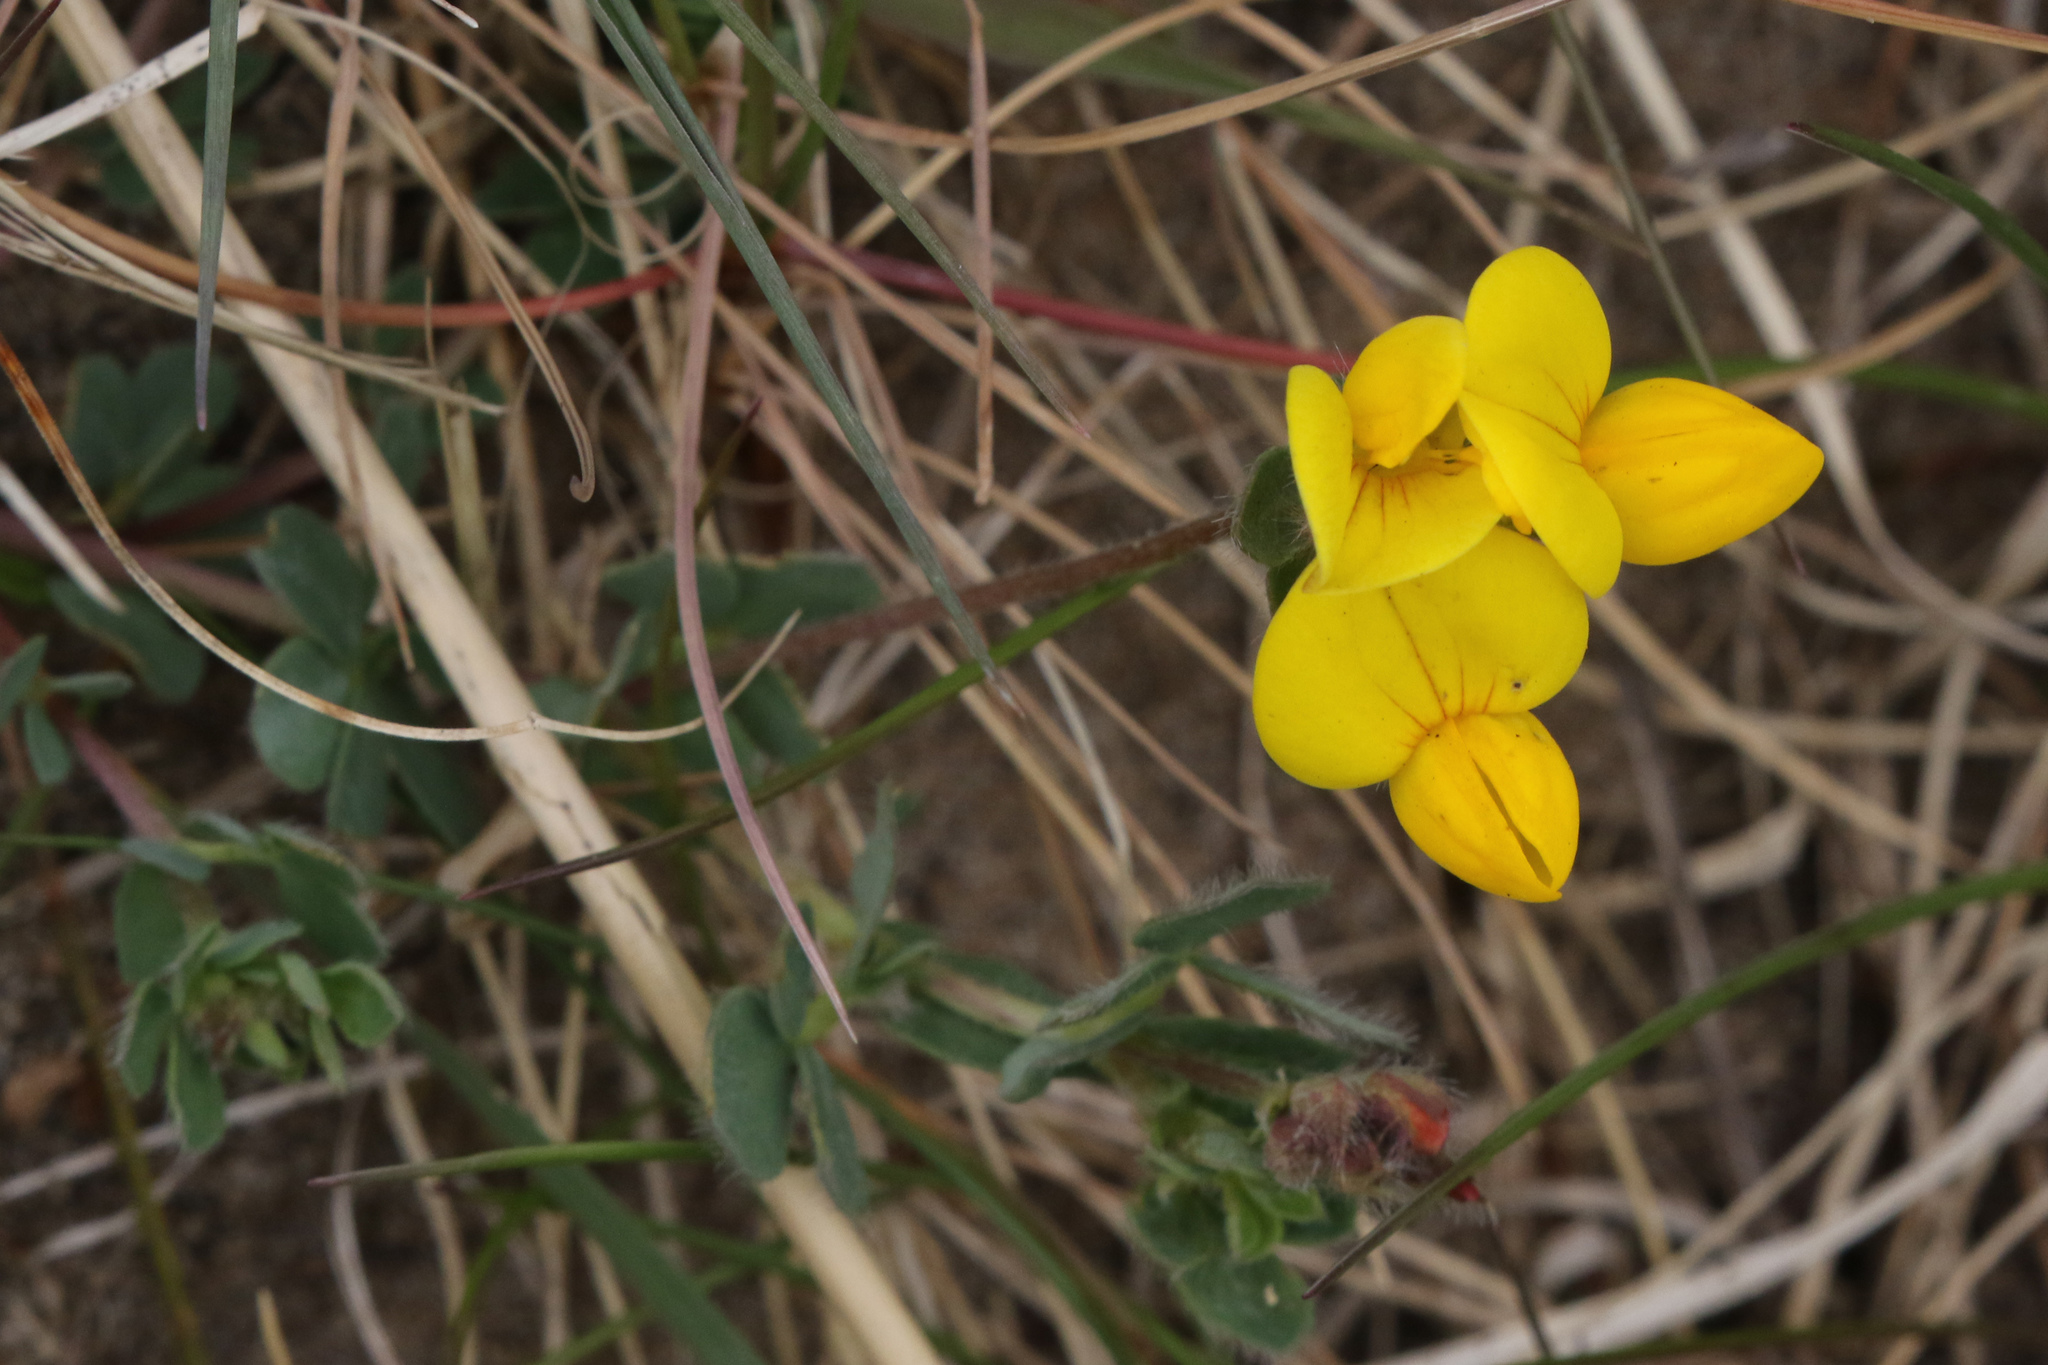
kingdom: Plantae
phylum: Tracheophyta
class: Magnoliopsida
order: Fabales
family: Fabaceae
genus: Lotus
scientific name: Lotus corniculatus
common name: Common bird's-foot-trefoil
